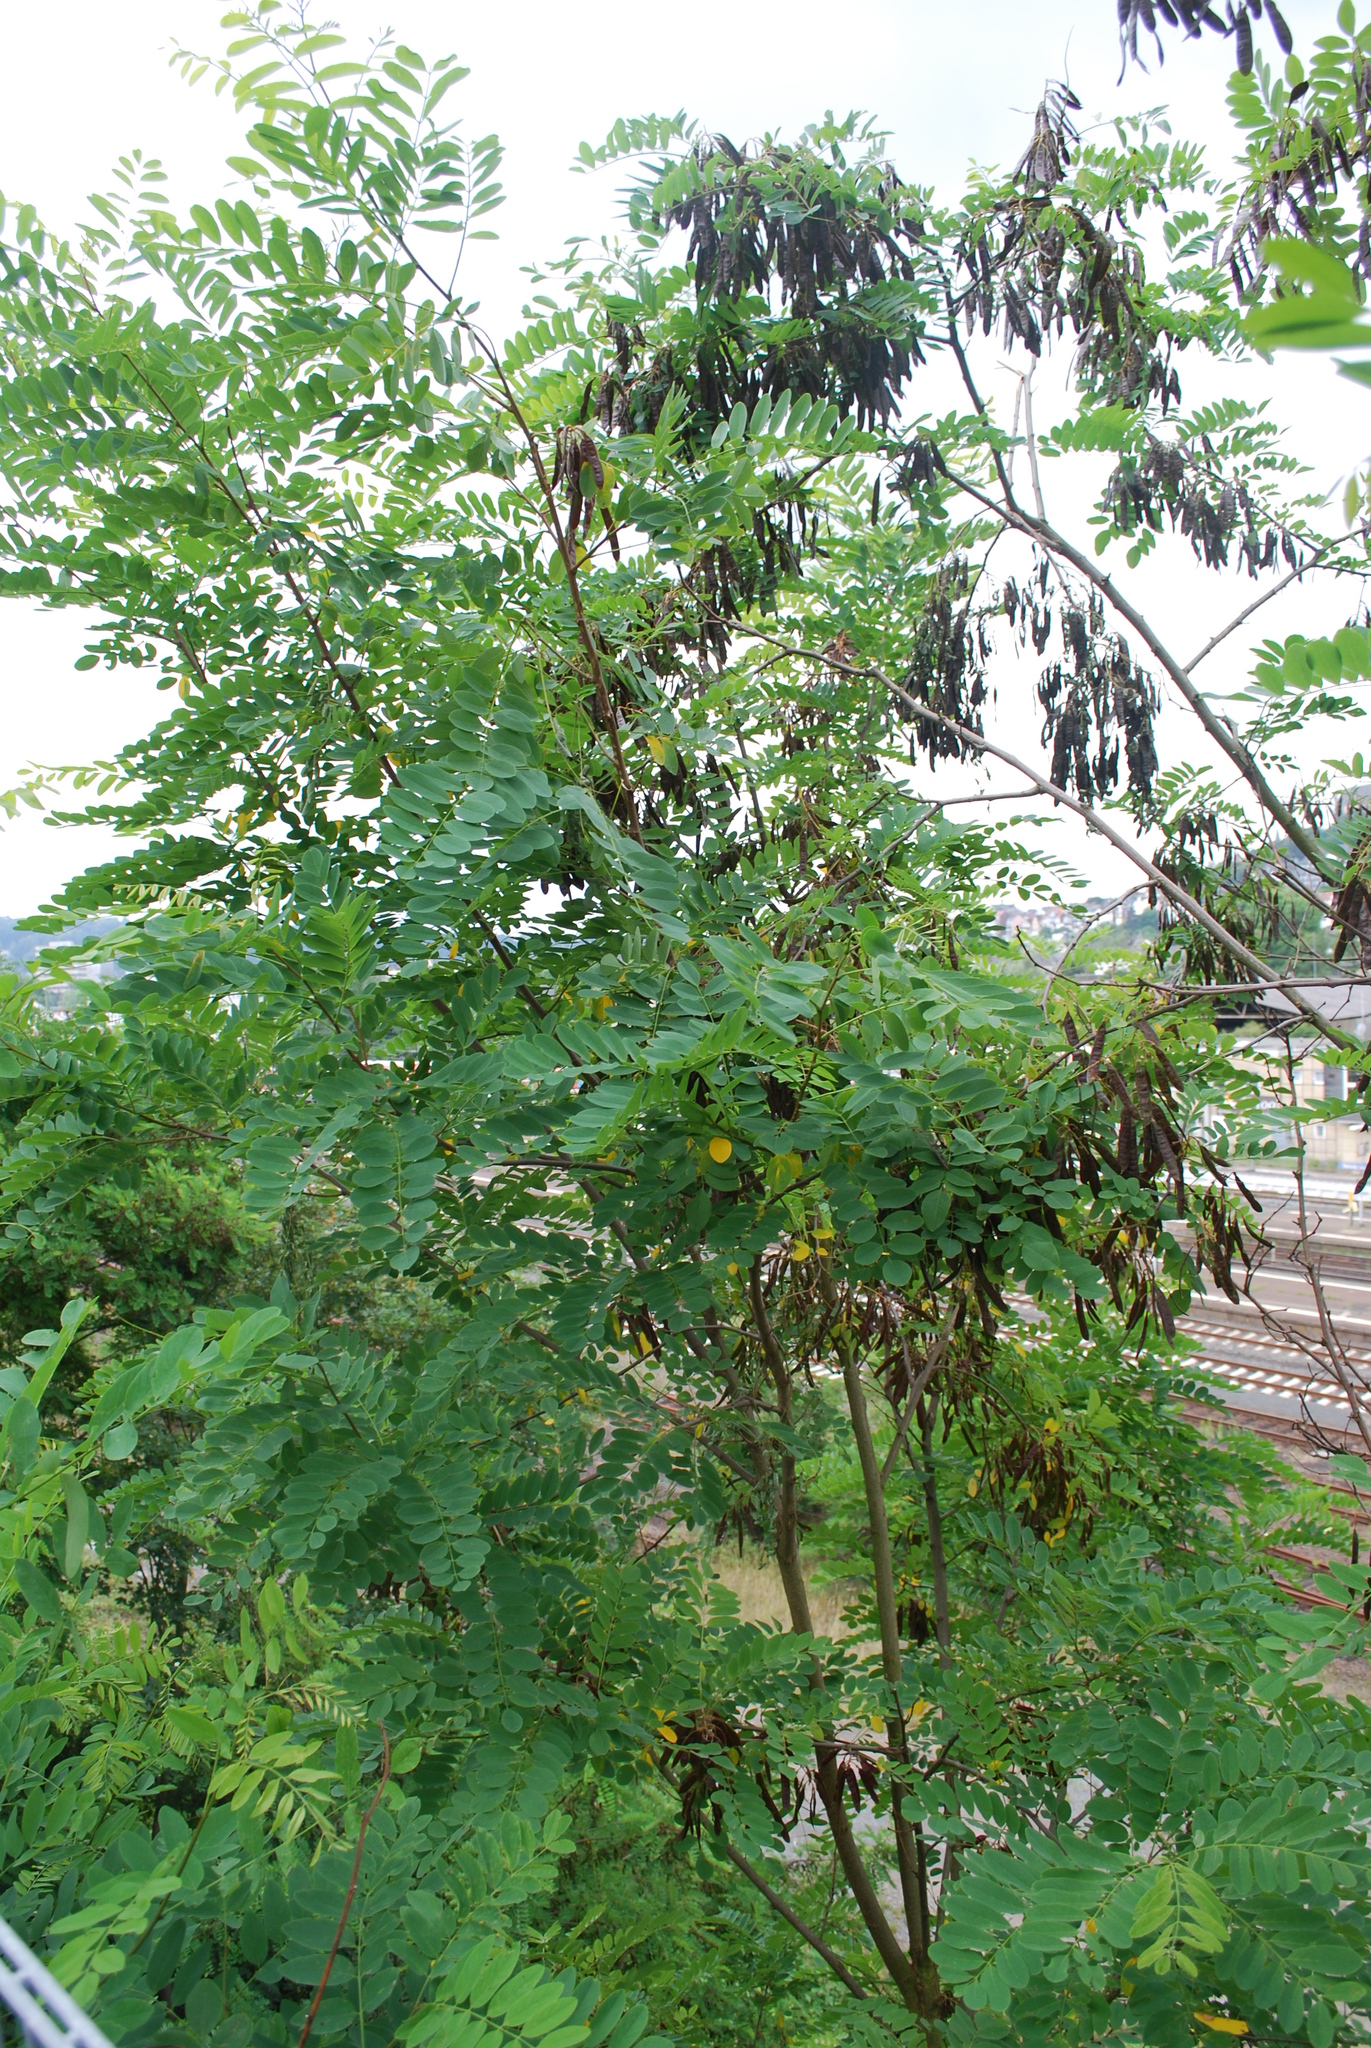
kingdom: Plantae
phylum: Tracheophyta
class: Magnoliopsida
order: Fabales
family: Fabaceae
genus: Robinia
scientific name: Robinia pseudoacacia
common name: Black locust
